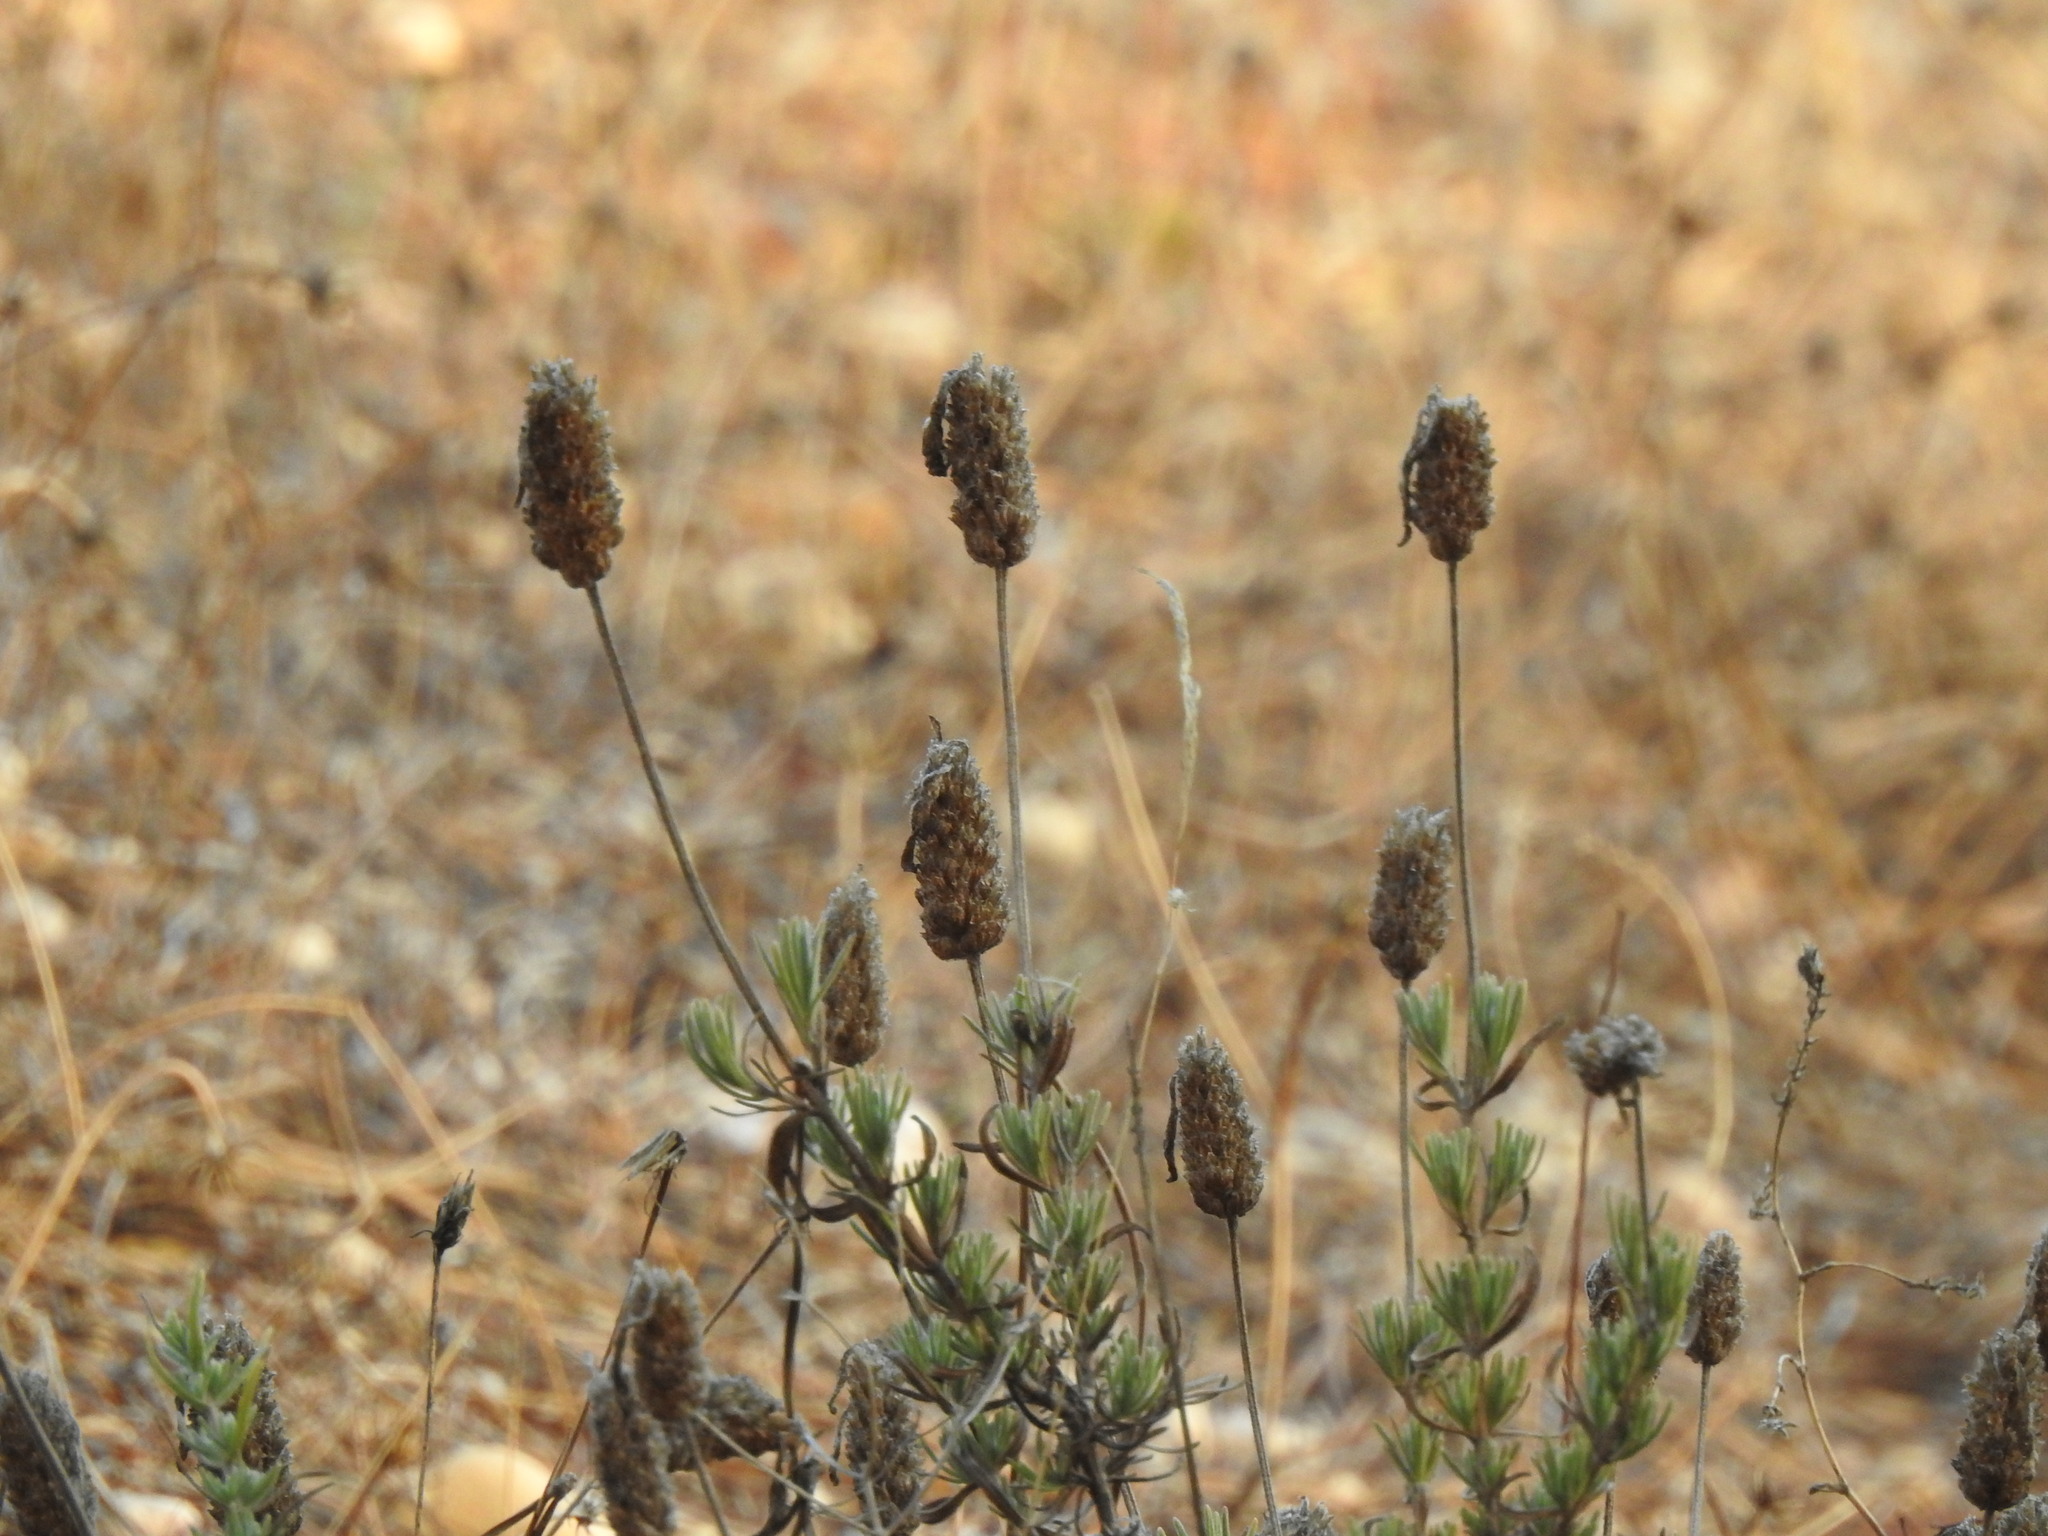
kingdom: Plantae
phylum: Tracheophyta
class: Magnoliopsida
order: Lamiales
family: Lamiaceae
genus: Lavandula
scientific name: Lavandula pedunculata
